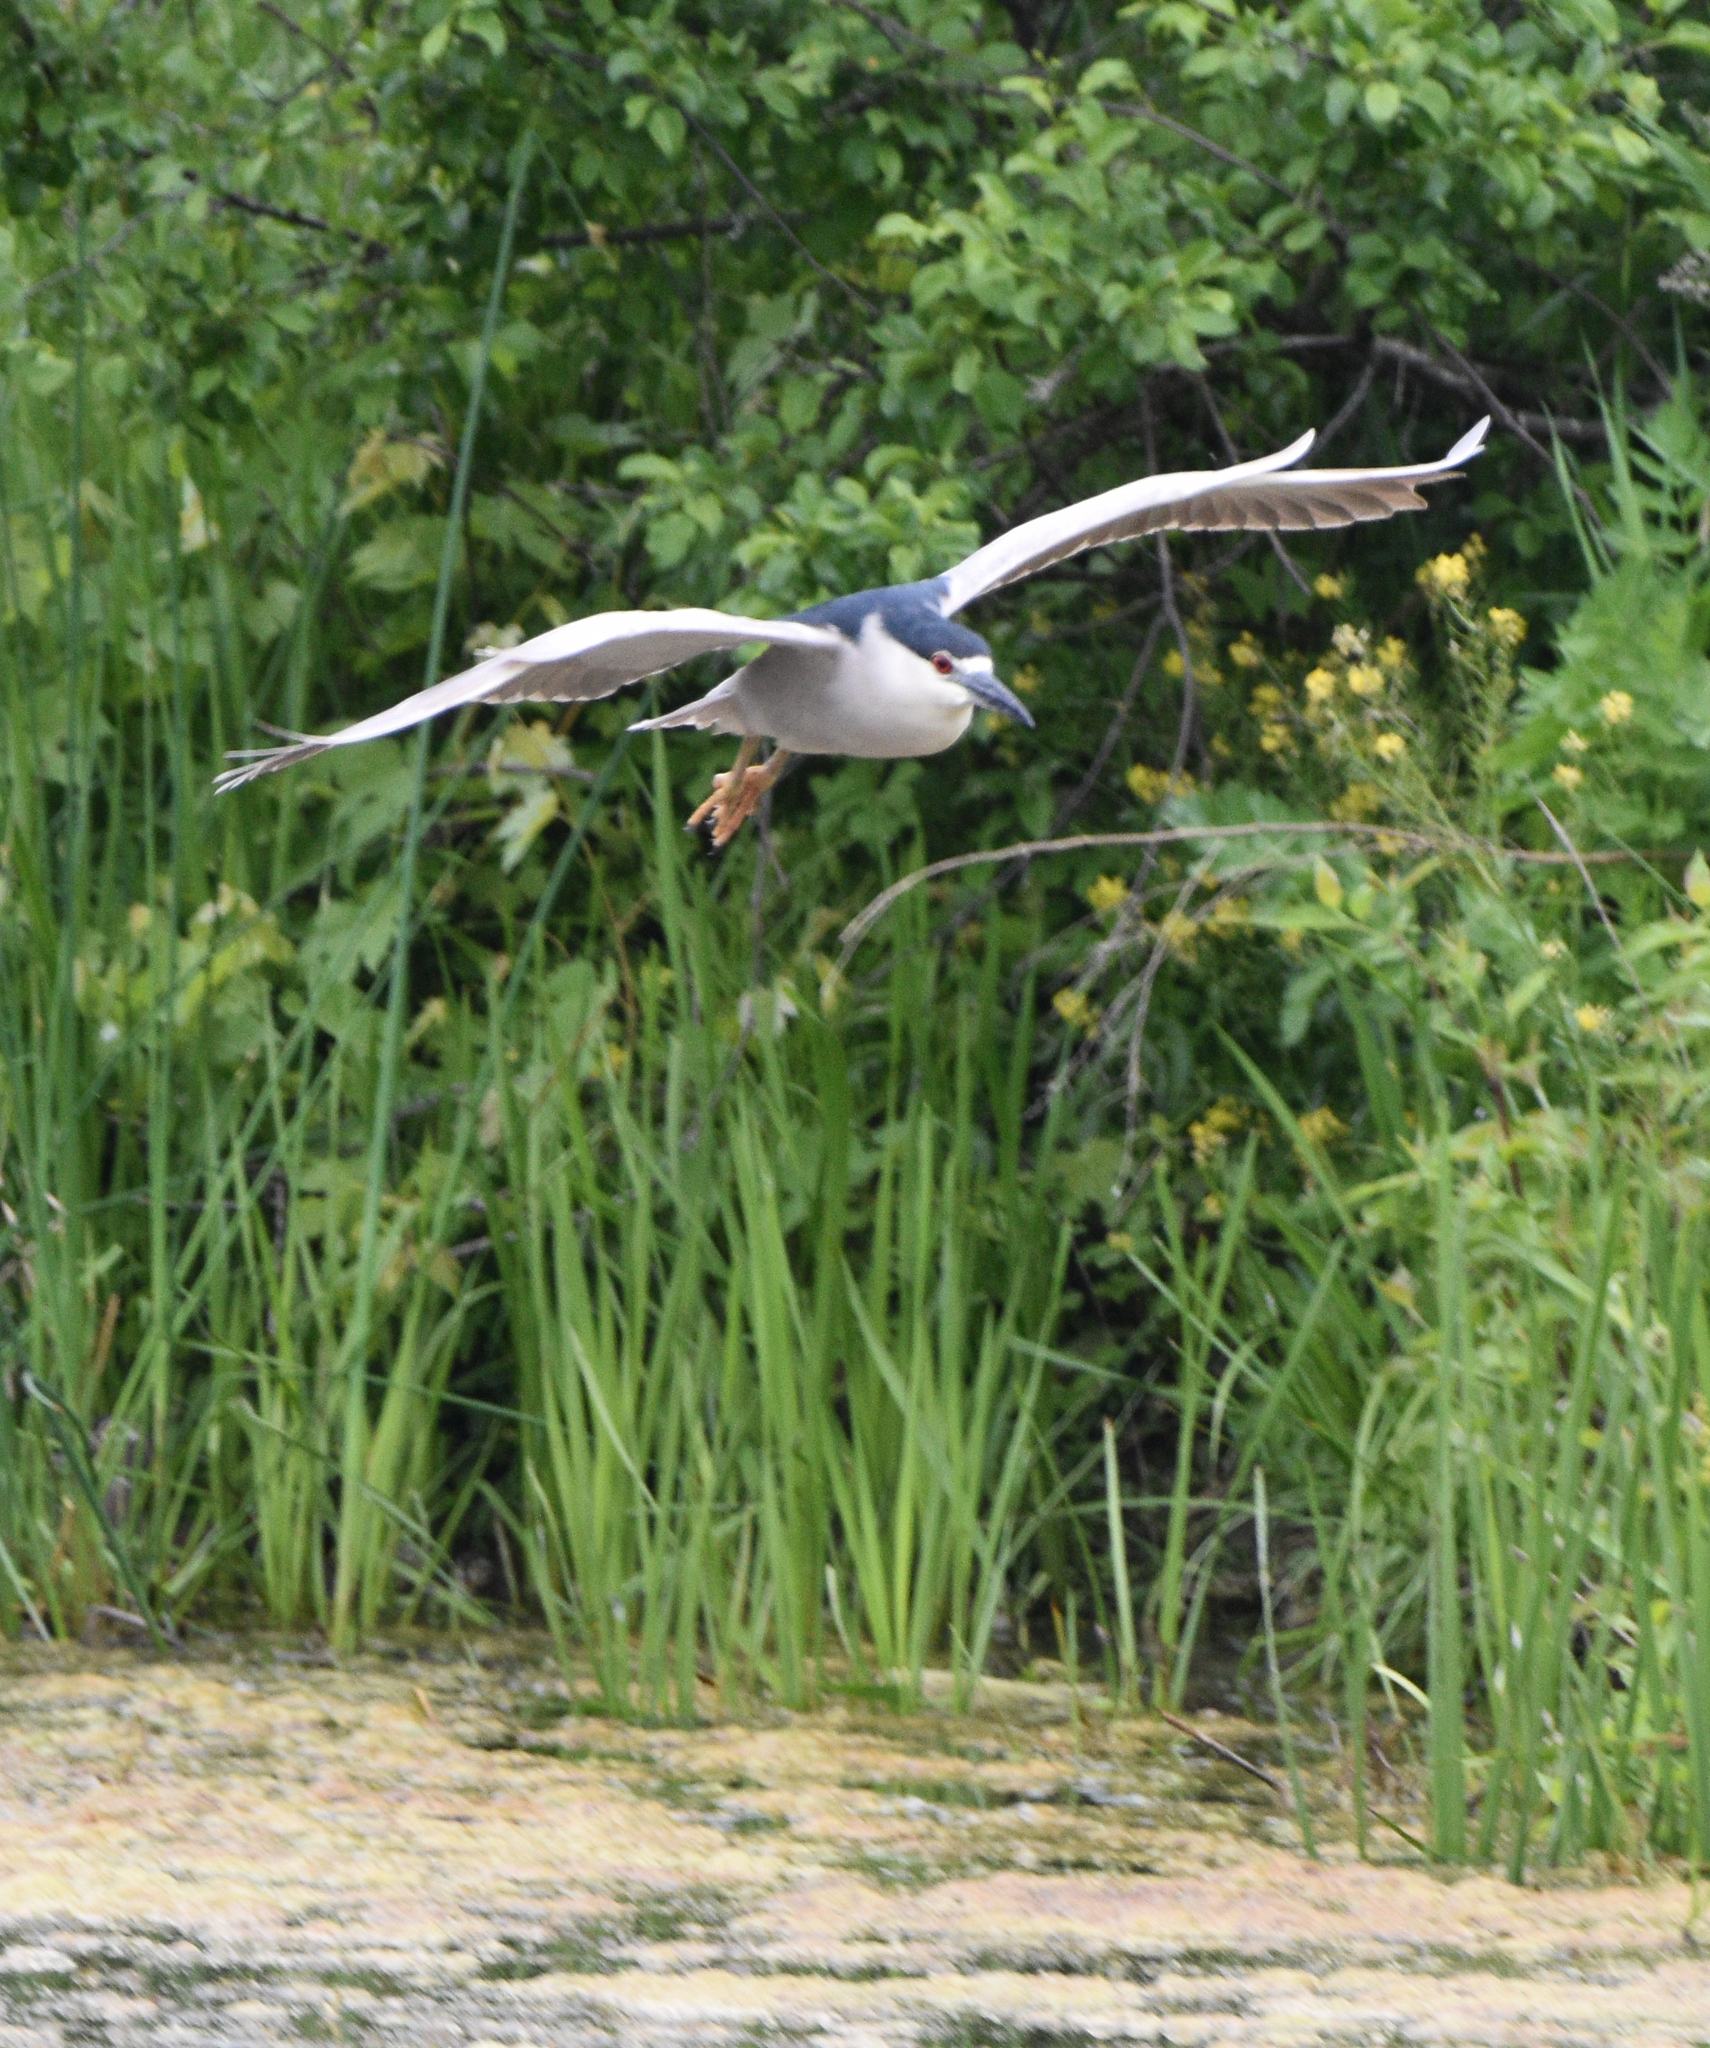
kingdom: Animalia
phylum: Chordata
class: Aves
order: Pelecaniformes
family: Ardeidae
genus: Nycticorax
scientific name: Nycticorax nycticorax
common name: Black-crowned night heron
